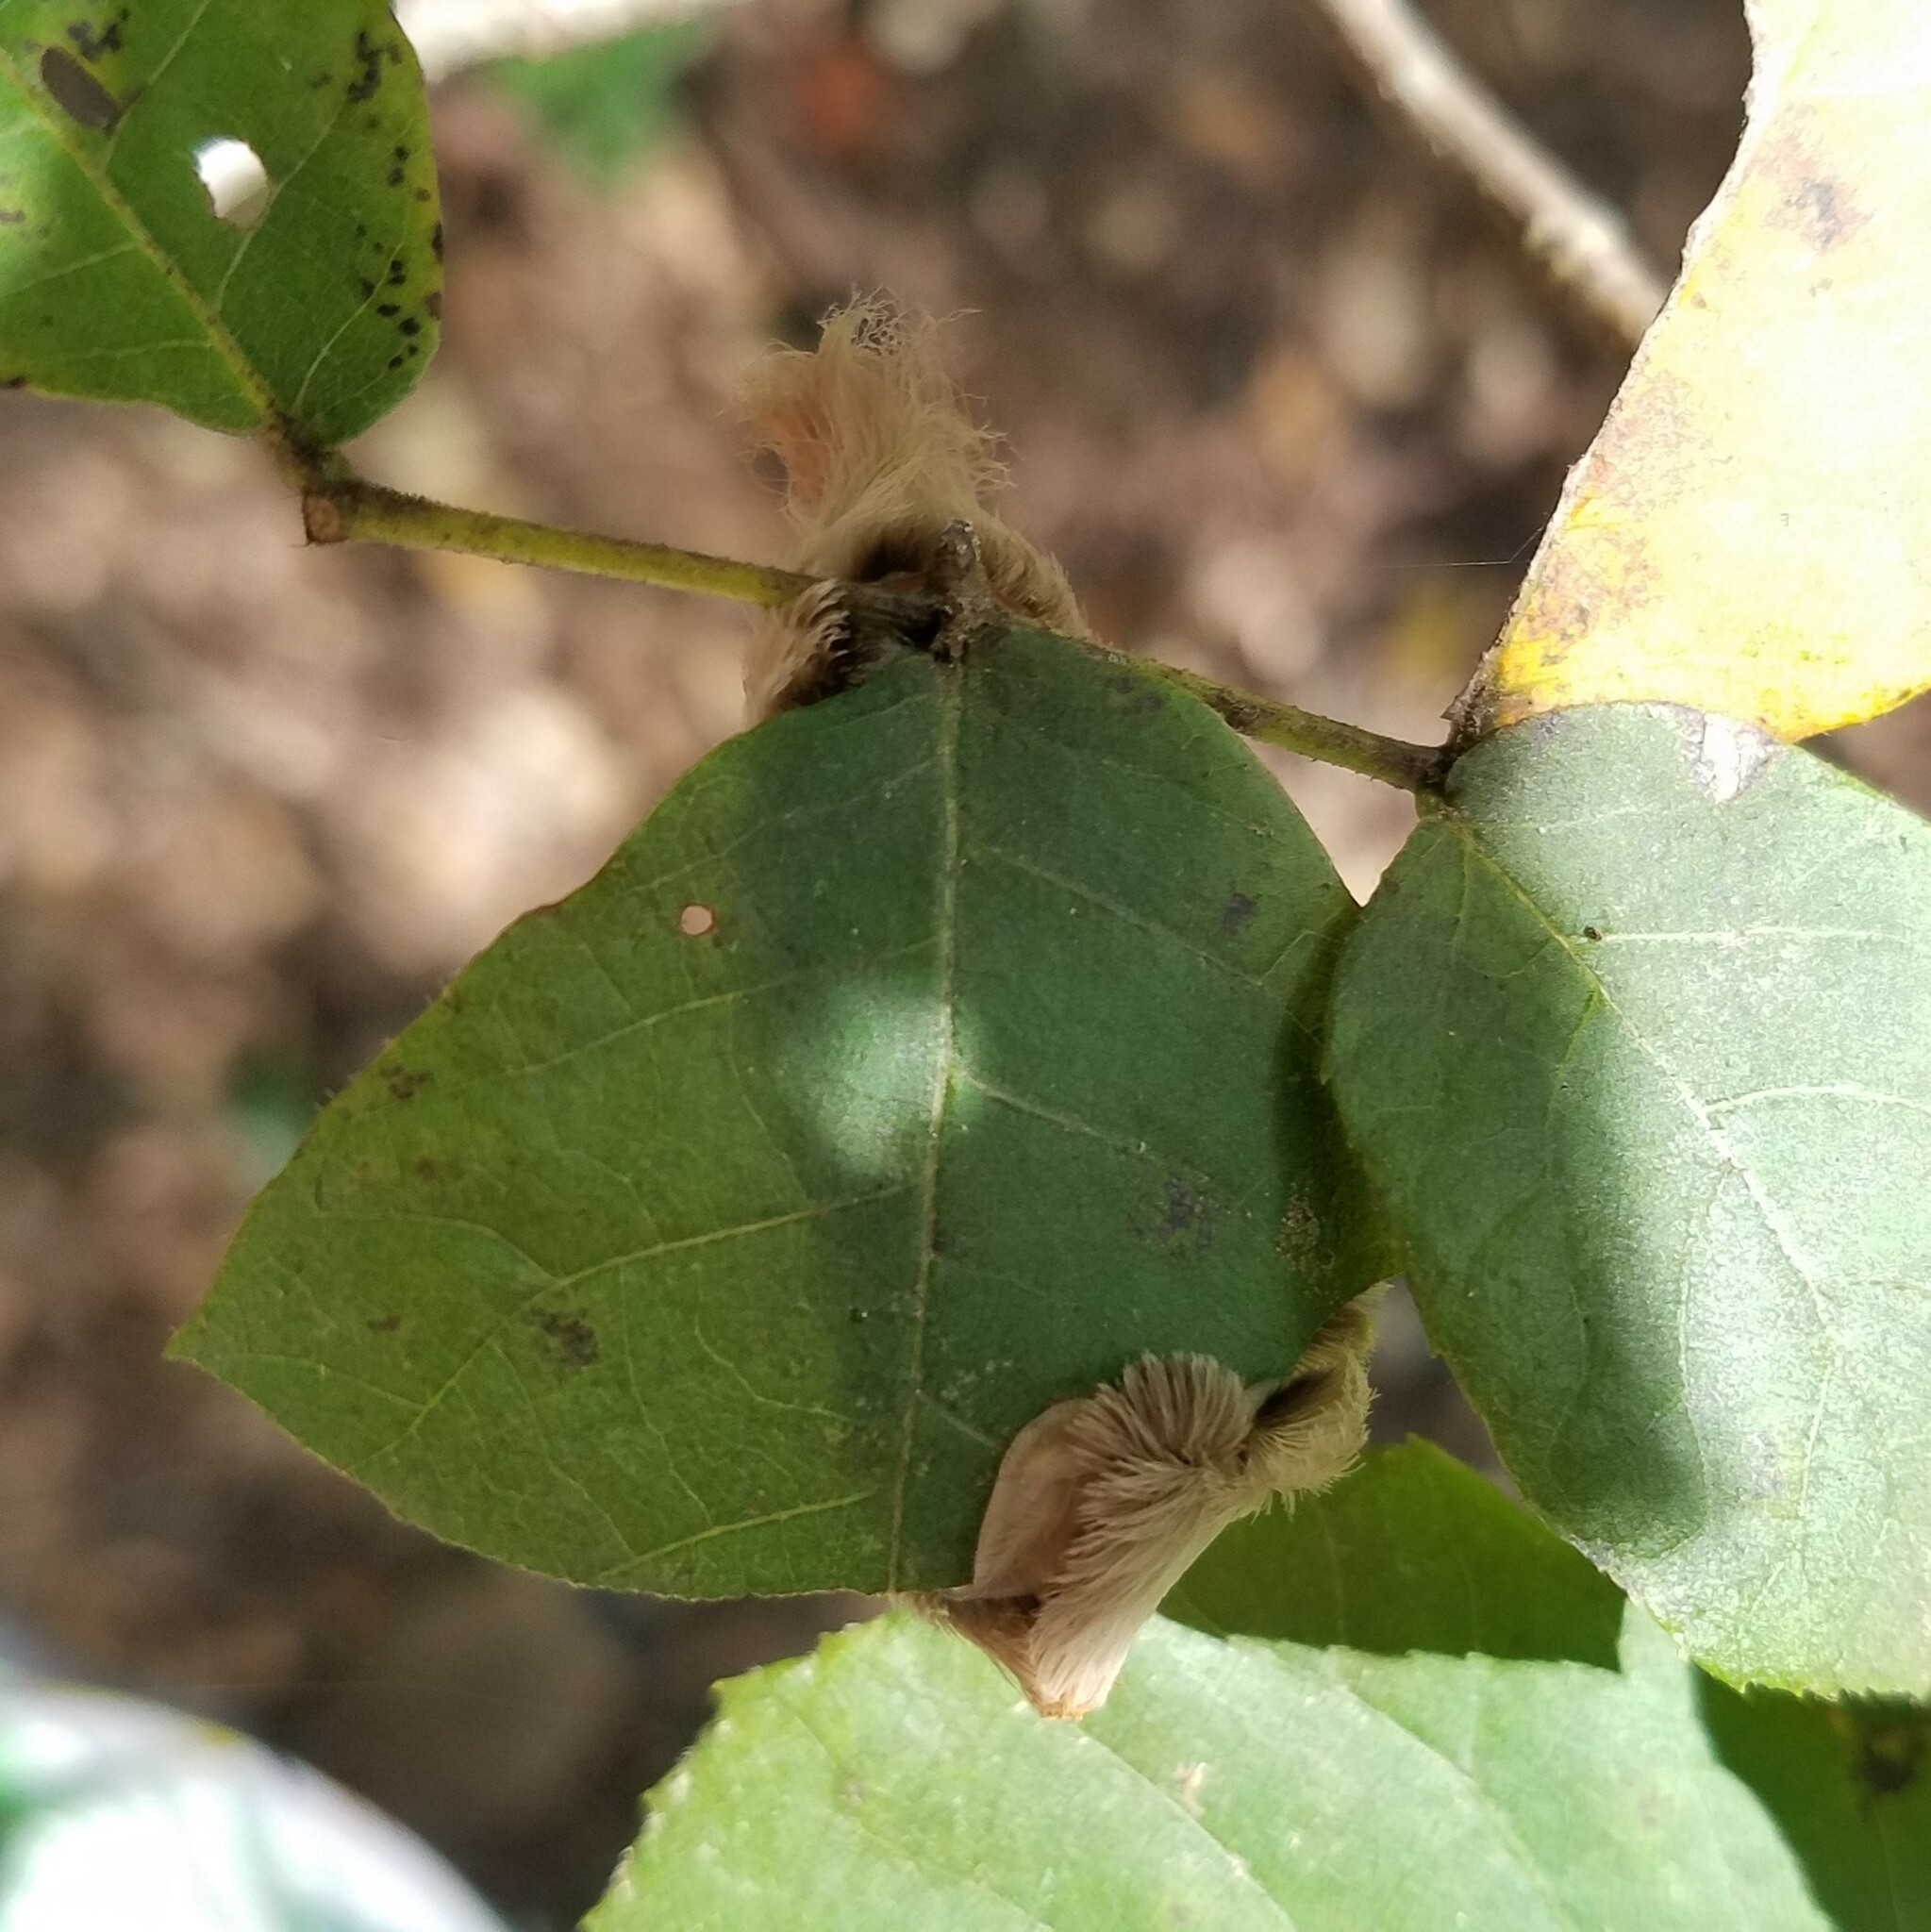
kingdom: Animalia
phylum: Arthropoda
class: Insecta
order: Lepidoptera
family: Megalopygidae
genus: Megalopyge
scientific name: Megalopyge opercularis
